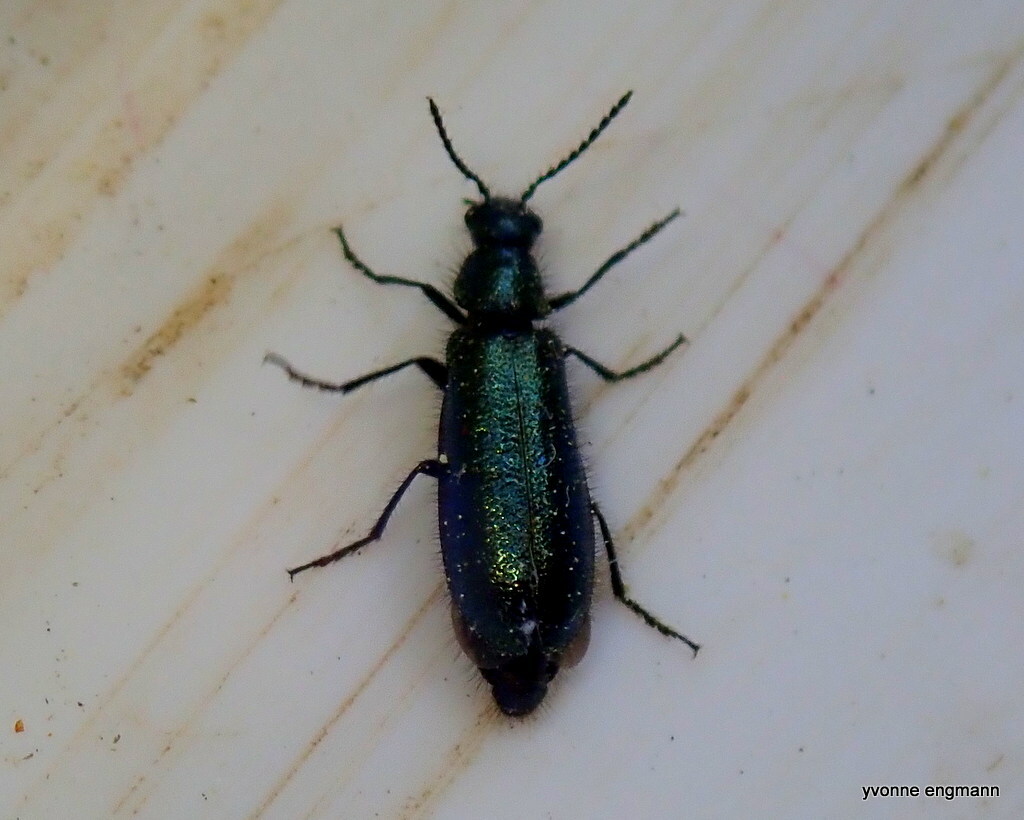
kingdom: Animalia
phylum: Arthropoda
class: Insecta
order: Coleoptera
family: Melyridae
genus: Dasytes
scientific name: Dasytes caeruleus
